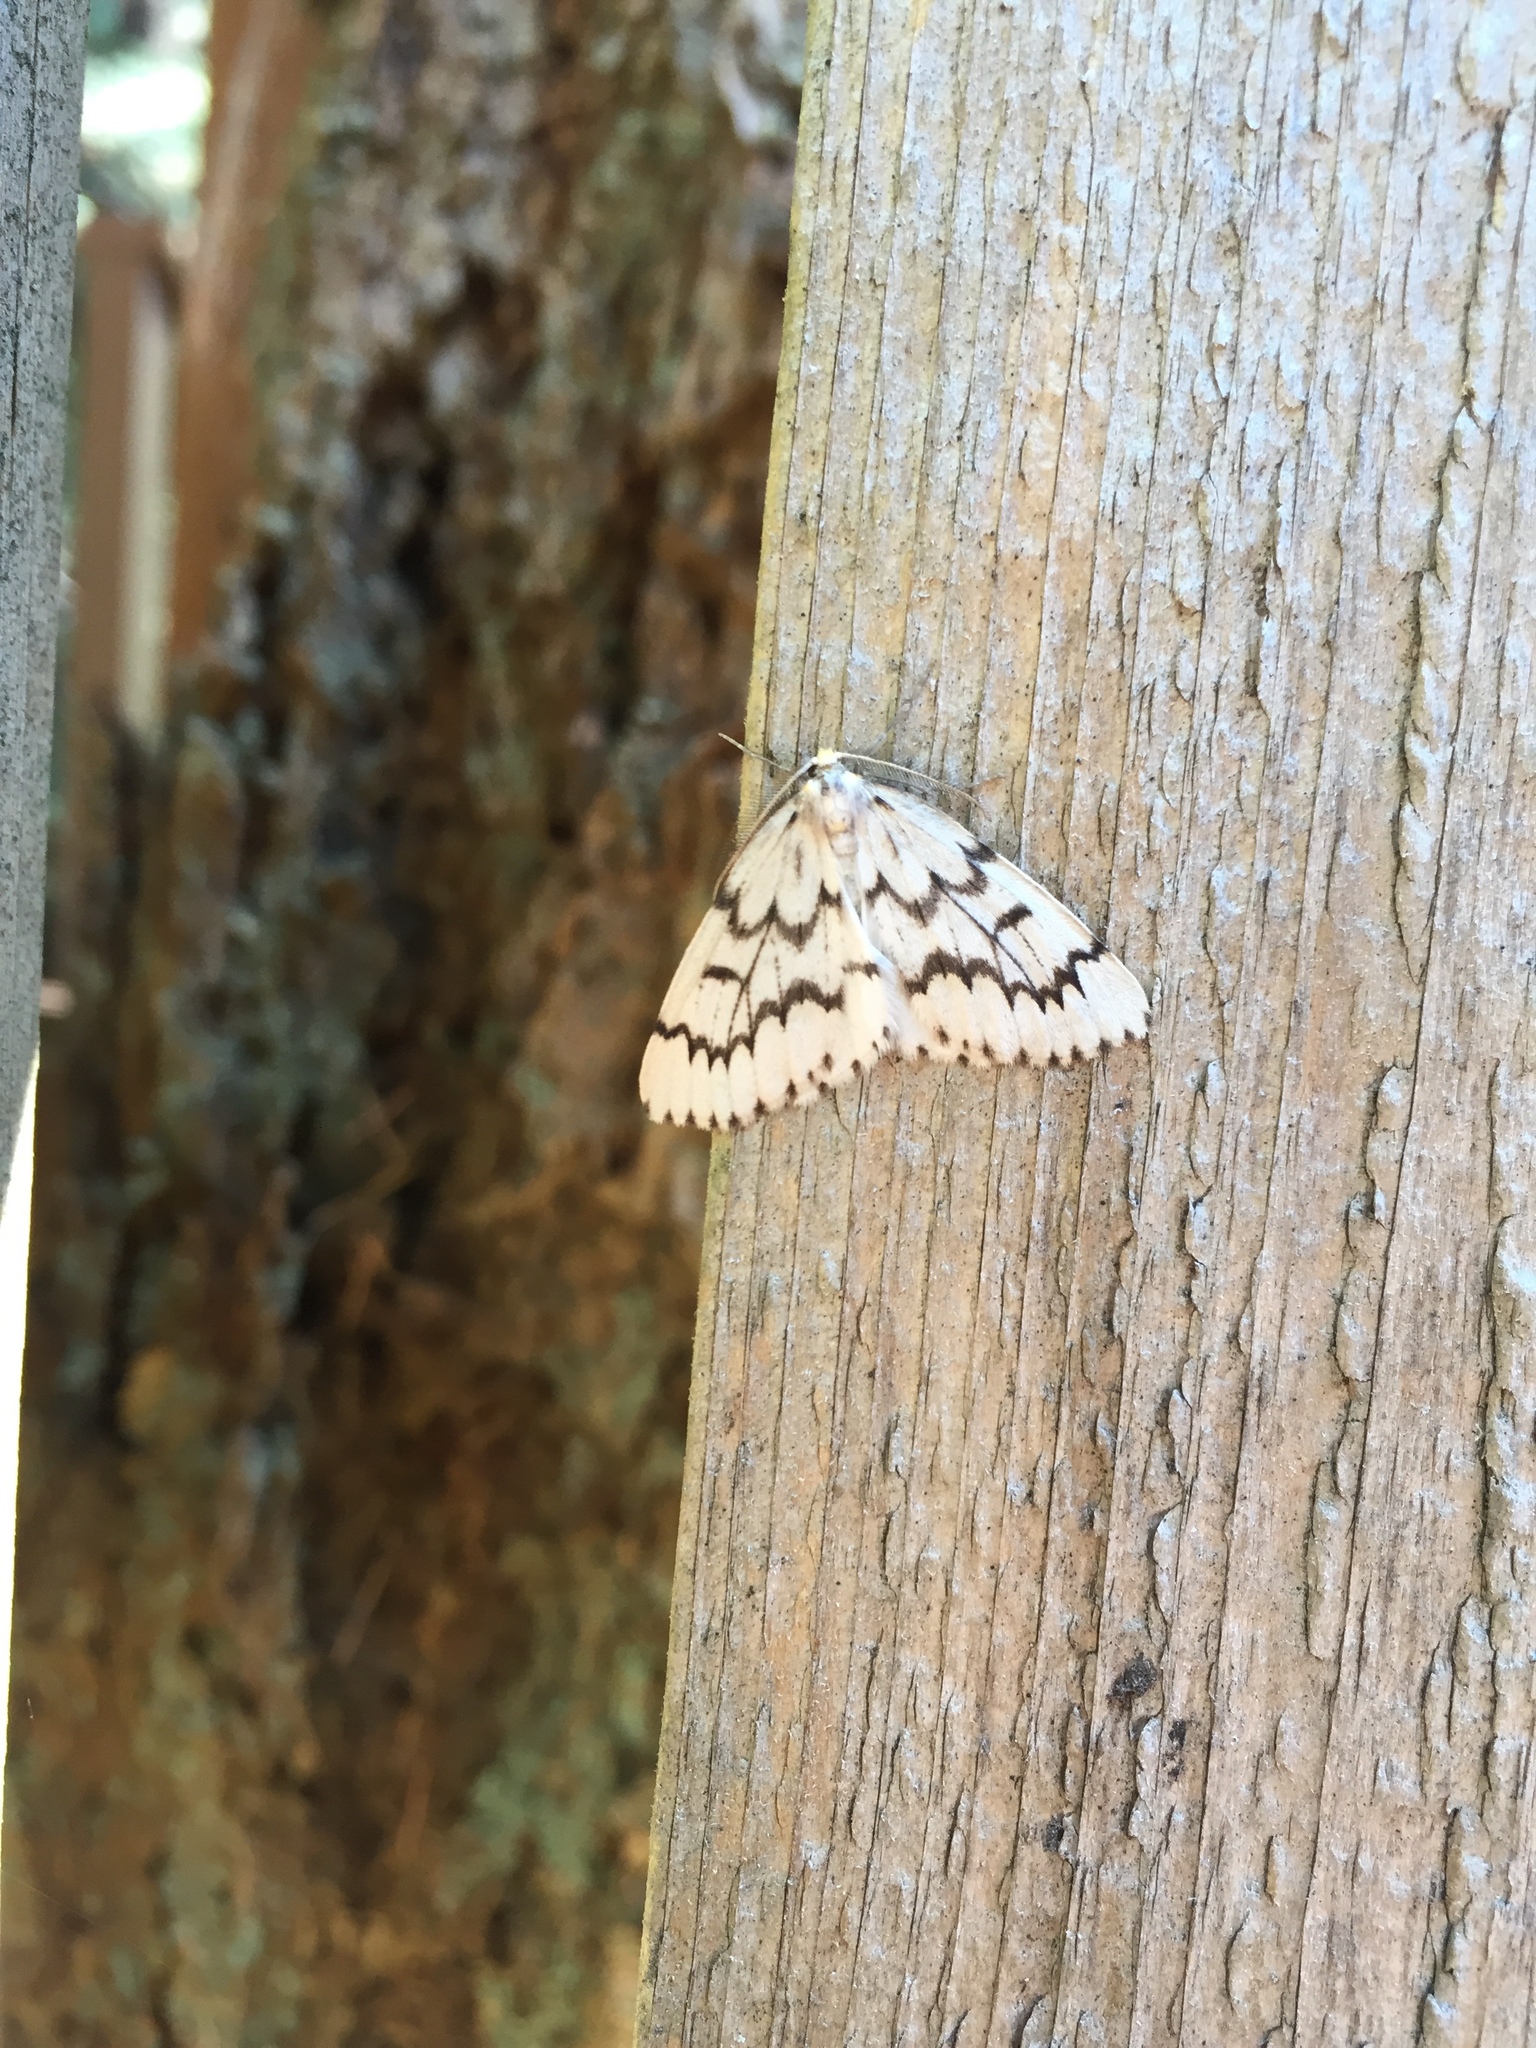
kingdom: Animalia
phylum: Arthropoda
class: Insecta
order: Lepidoptera
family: Geometridae
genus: Nepytia
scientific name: Nepytia phantasmaria
